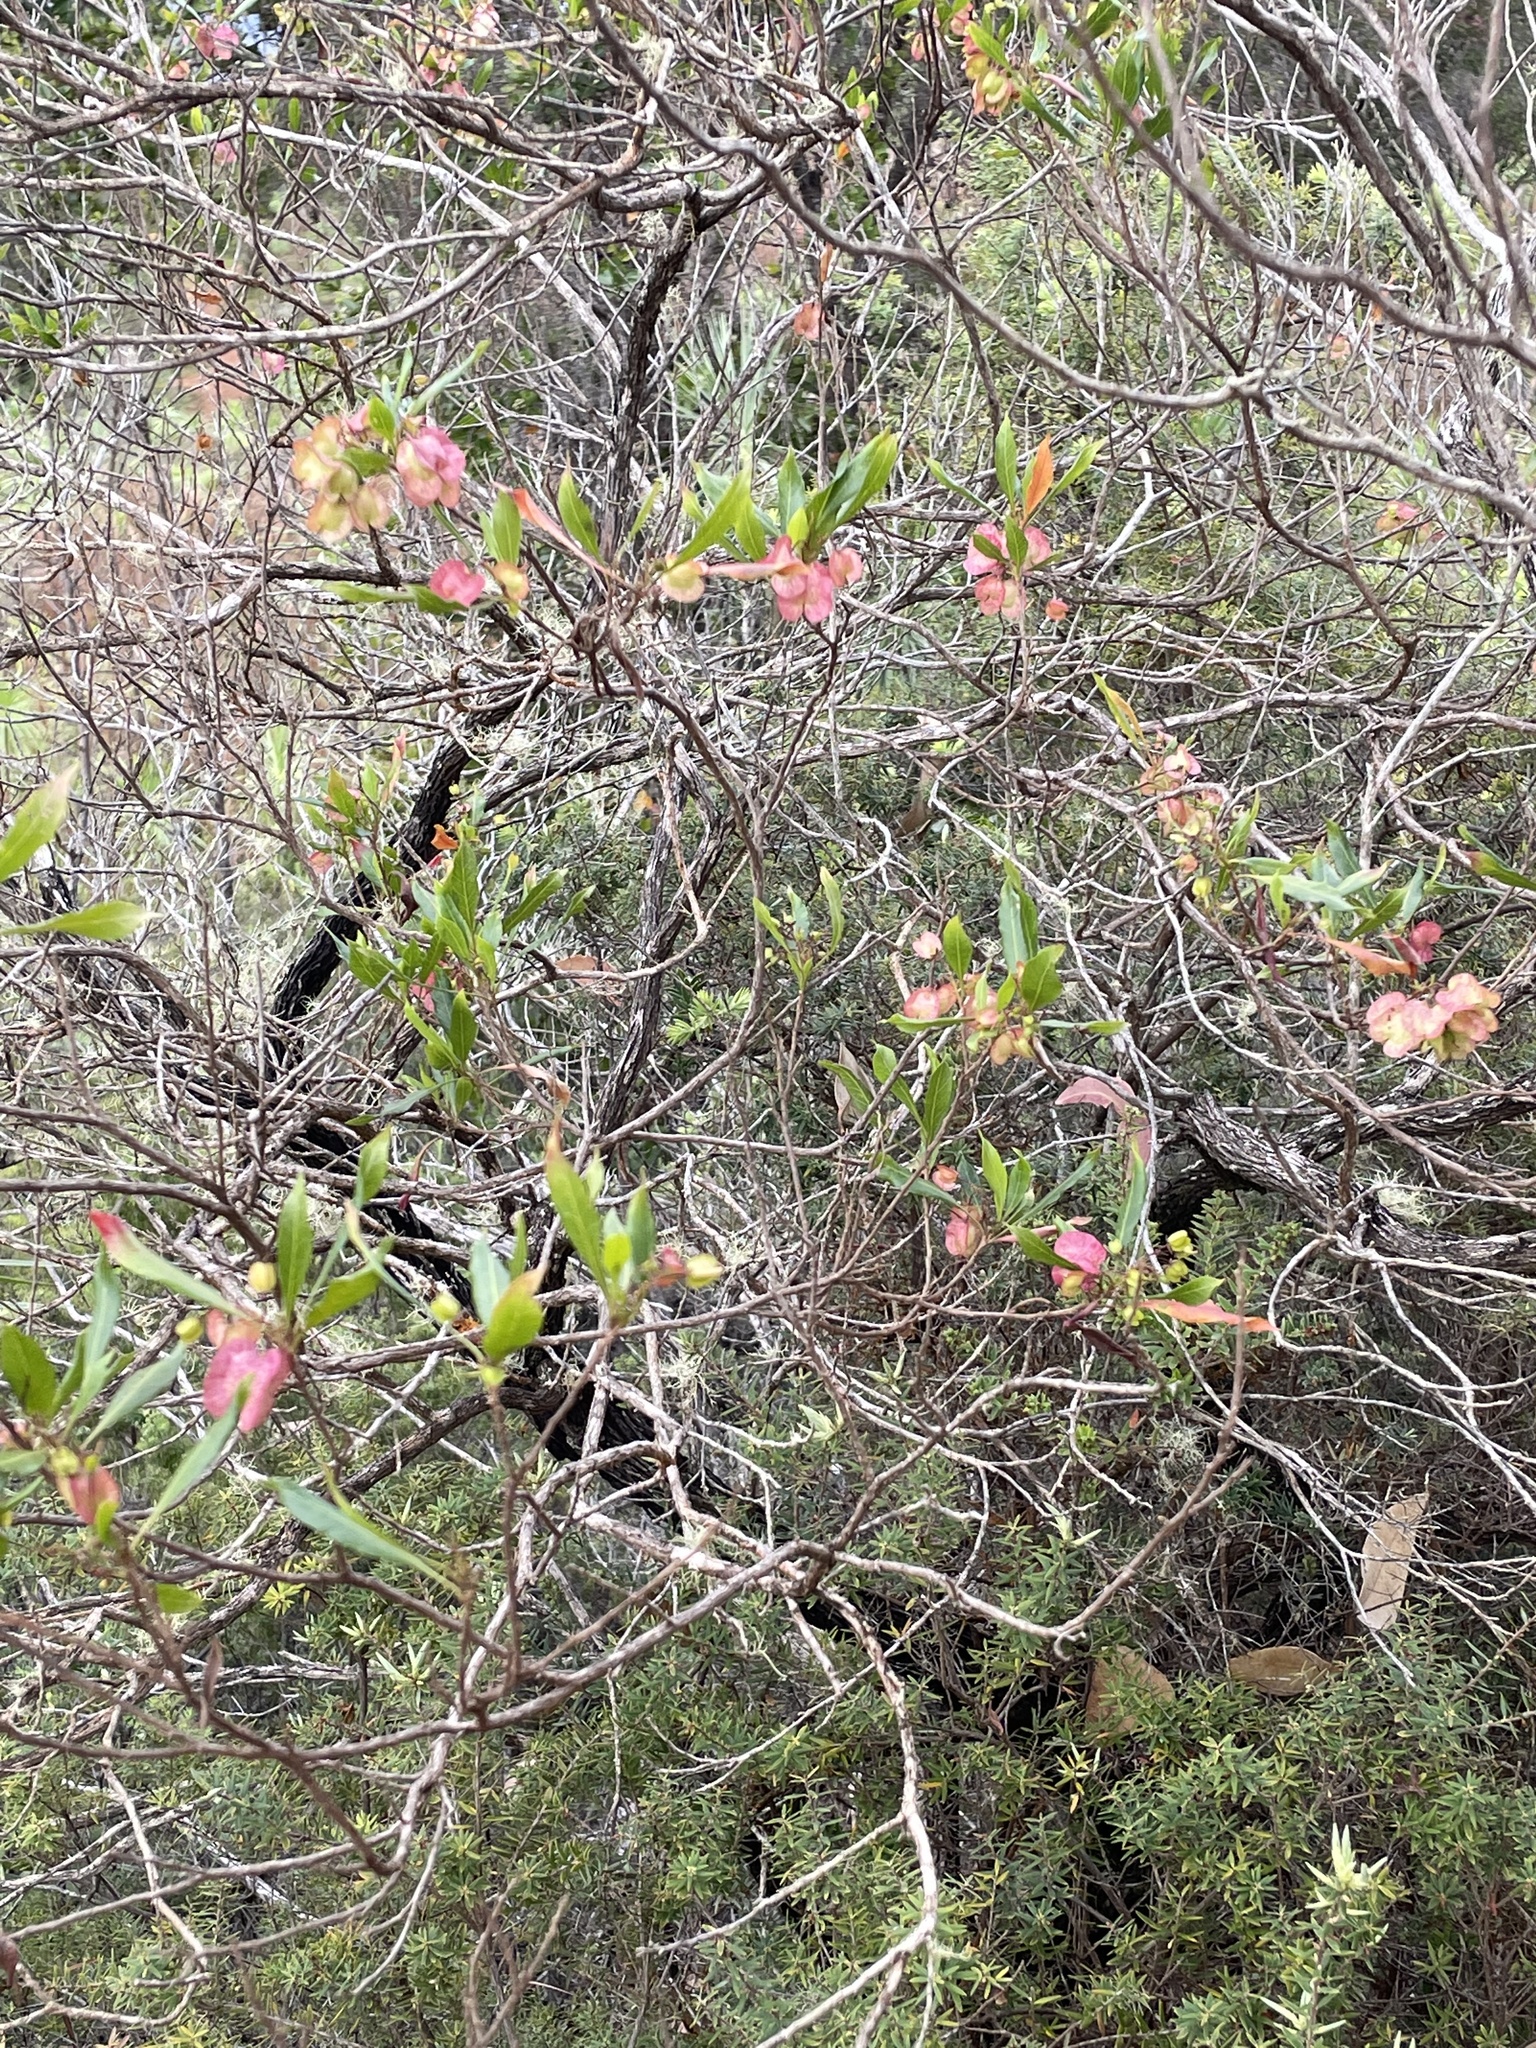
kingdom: Plantae
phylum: Tracheophyta
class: Magnoliopsida
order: Sapindales
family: Sapindaceae
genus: Dodonaea
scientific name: Dodonaea viscosa
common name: Hopbush
